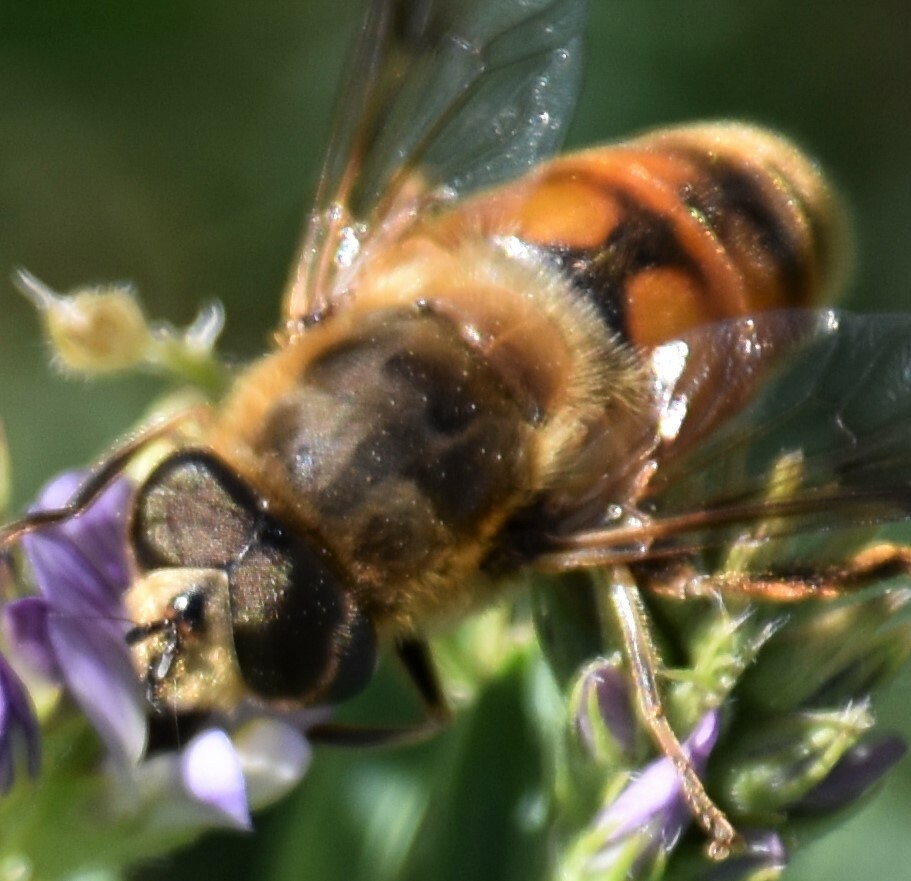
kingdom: Animalia
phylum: Arthropoda
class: Insecta
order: Diptera
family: Syrphidae
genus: Eristalis
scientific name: Eristalis tenax
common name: Drone fly
